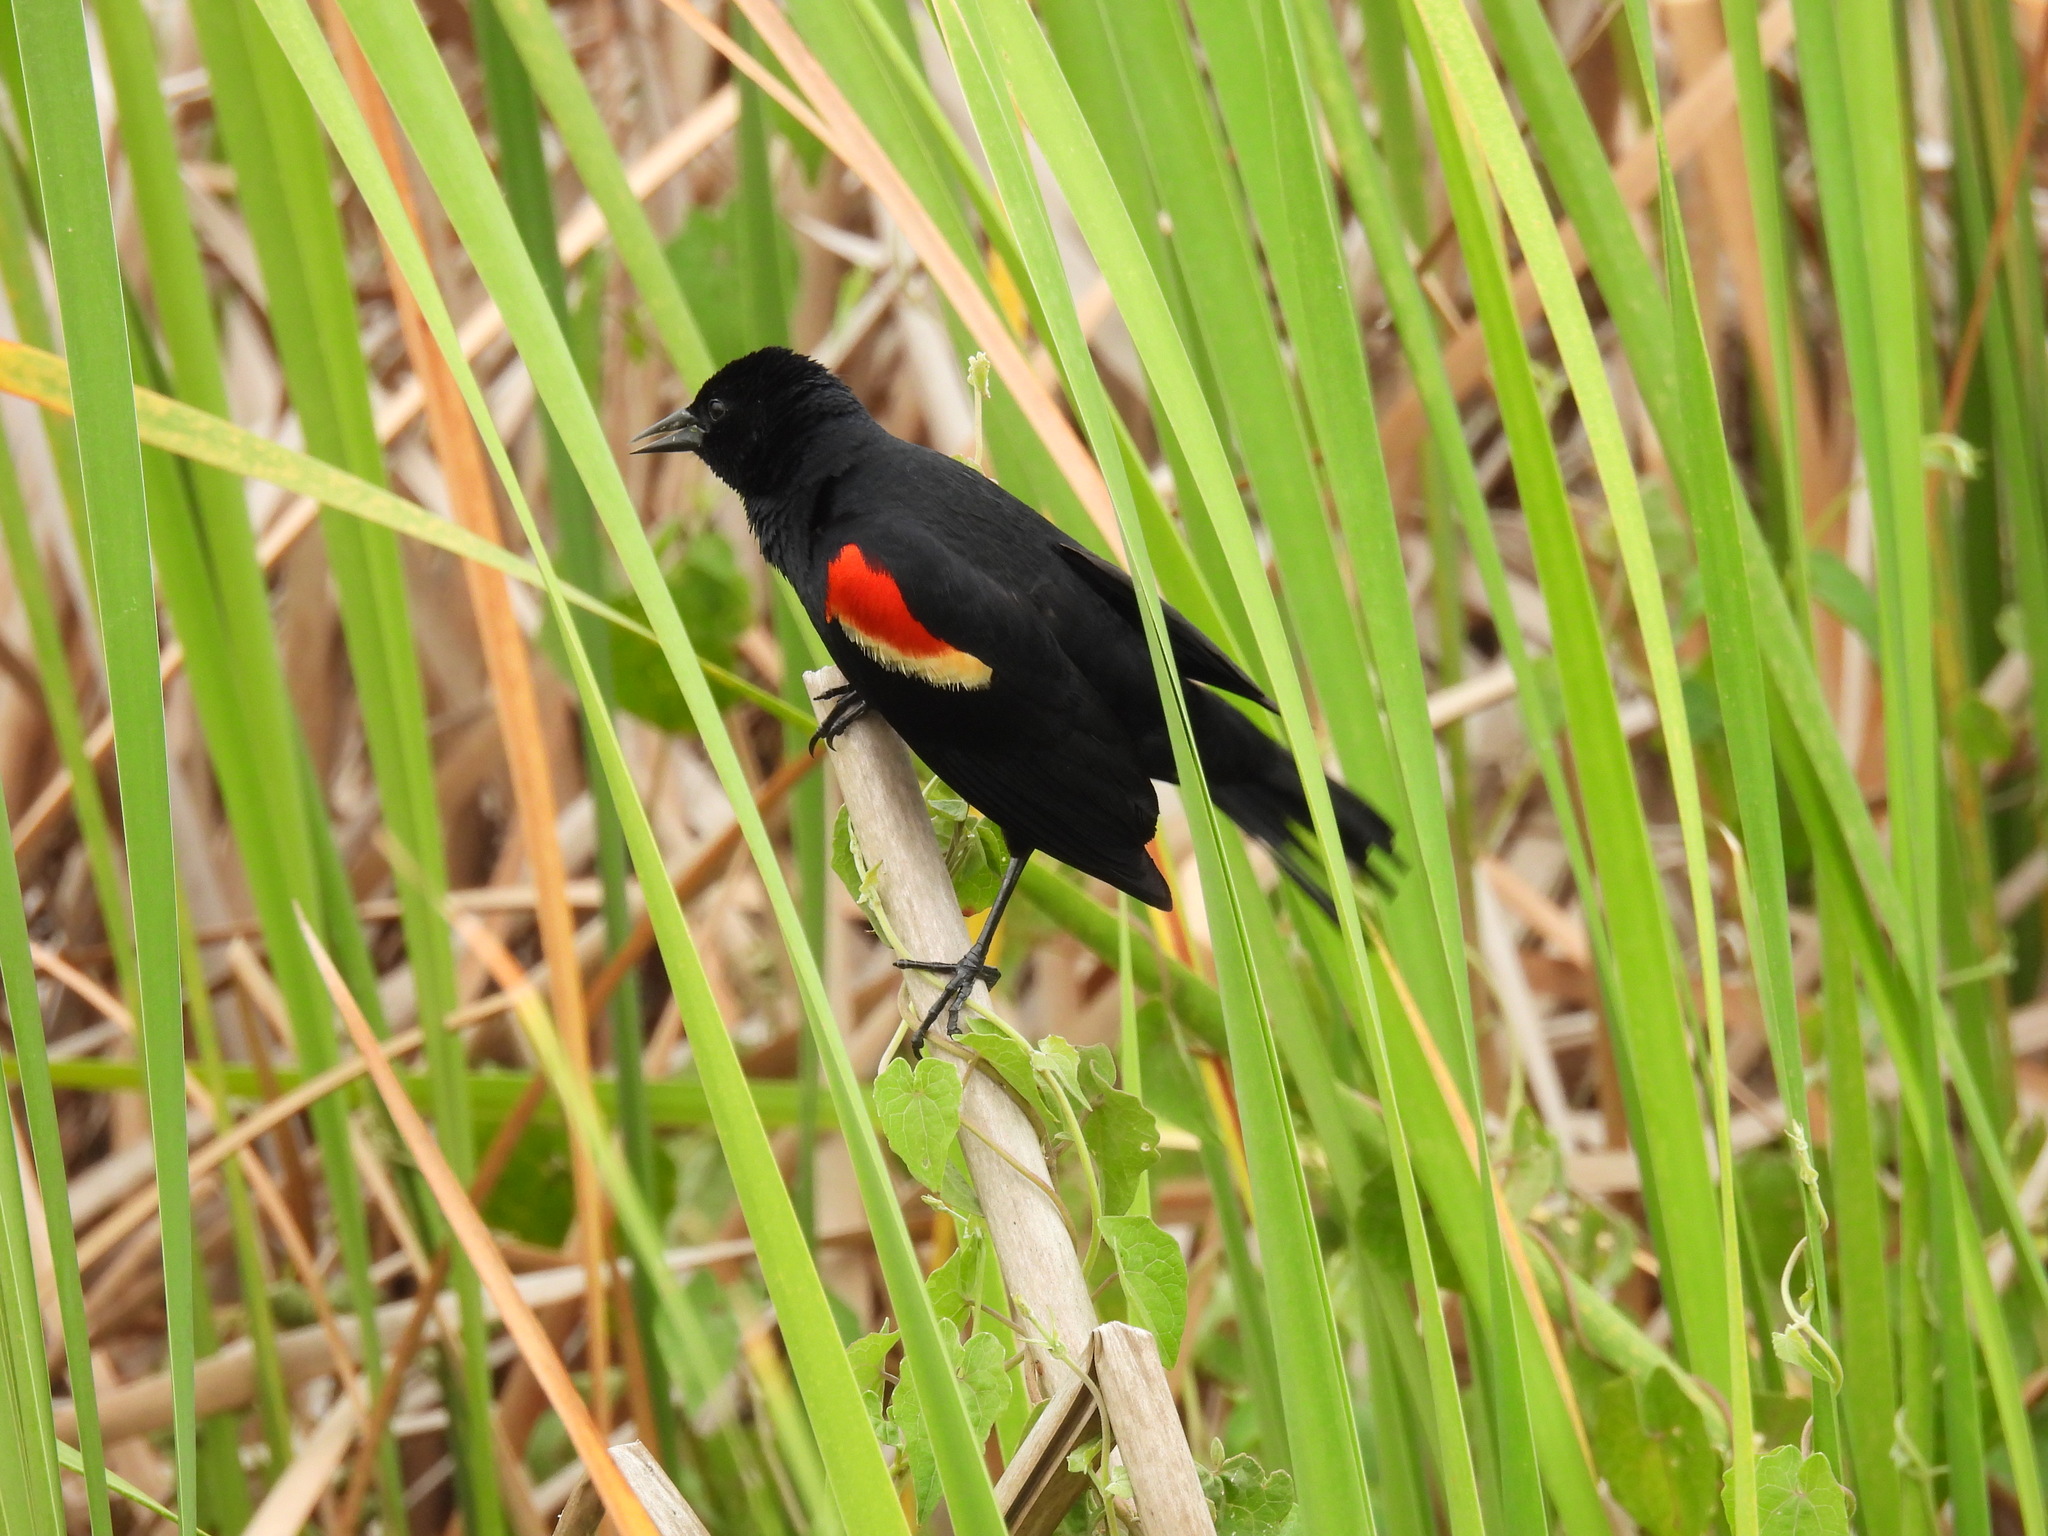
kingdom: Animalia
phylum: Chordata
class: Aves
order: Passeriformes
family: Icteridae
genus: Agelaius
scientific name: Agelaius phoeniceus
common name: Red-winged blackbird
